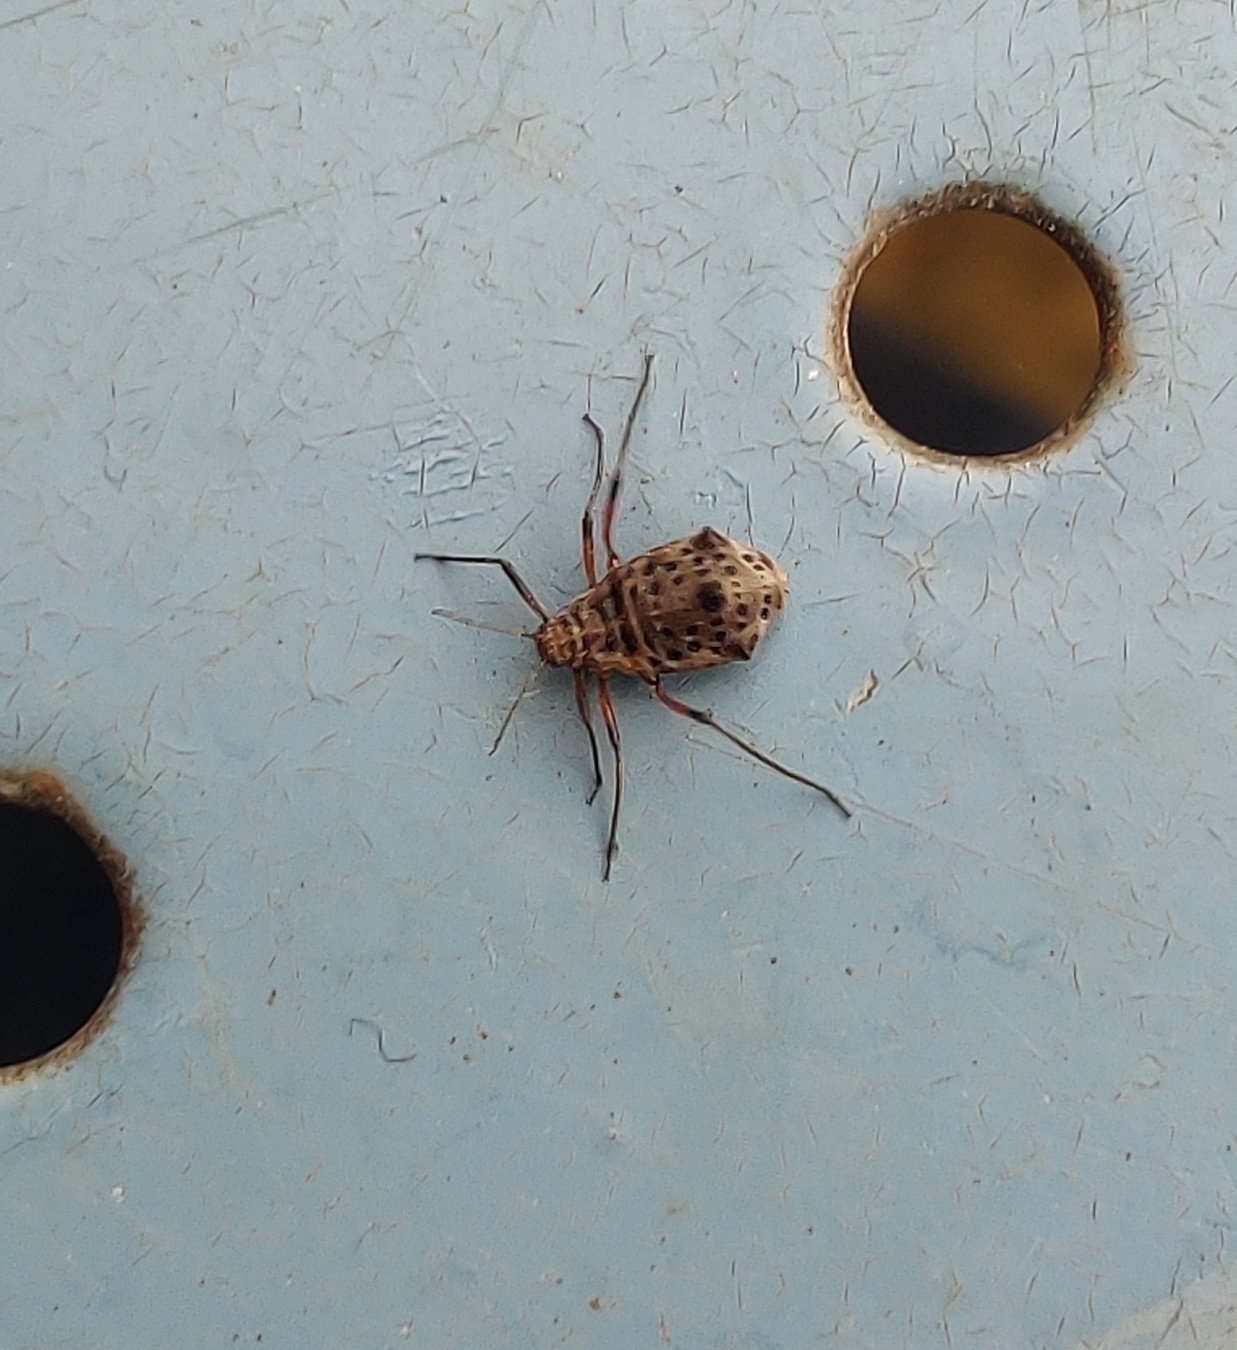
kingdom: Animalia
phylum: Arthropoda
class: Insecta
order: Hemiptera
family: Aphididae
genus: Tuberolachnus
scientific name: Tuberolachnus salignus
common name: Giant willow aphid
